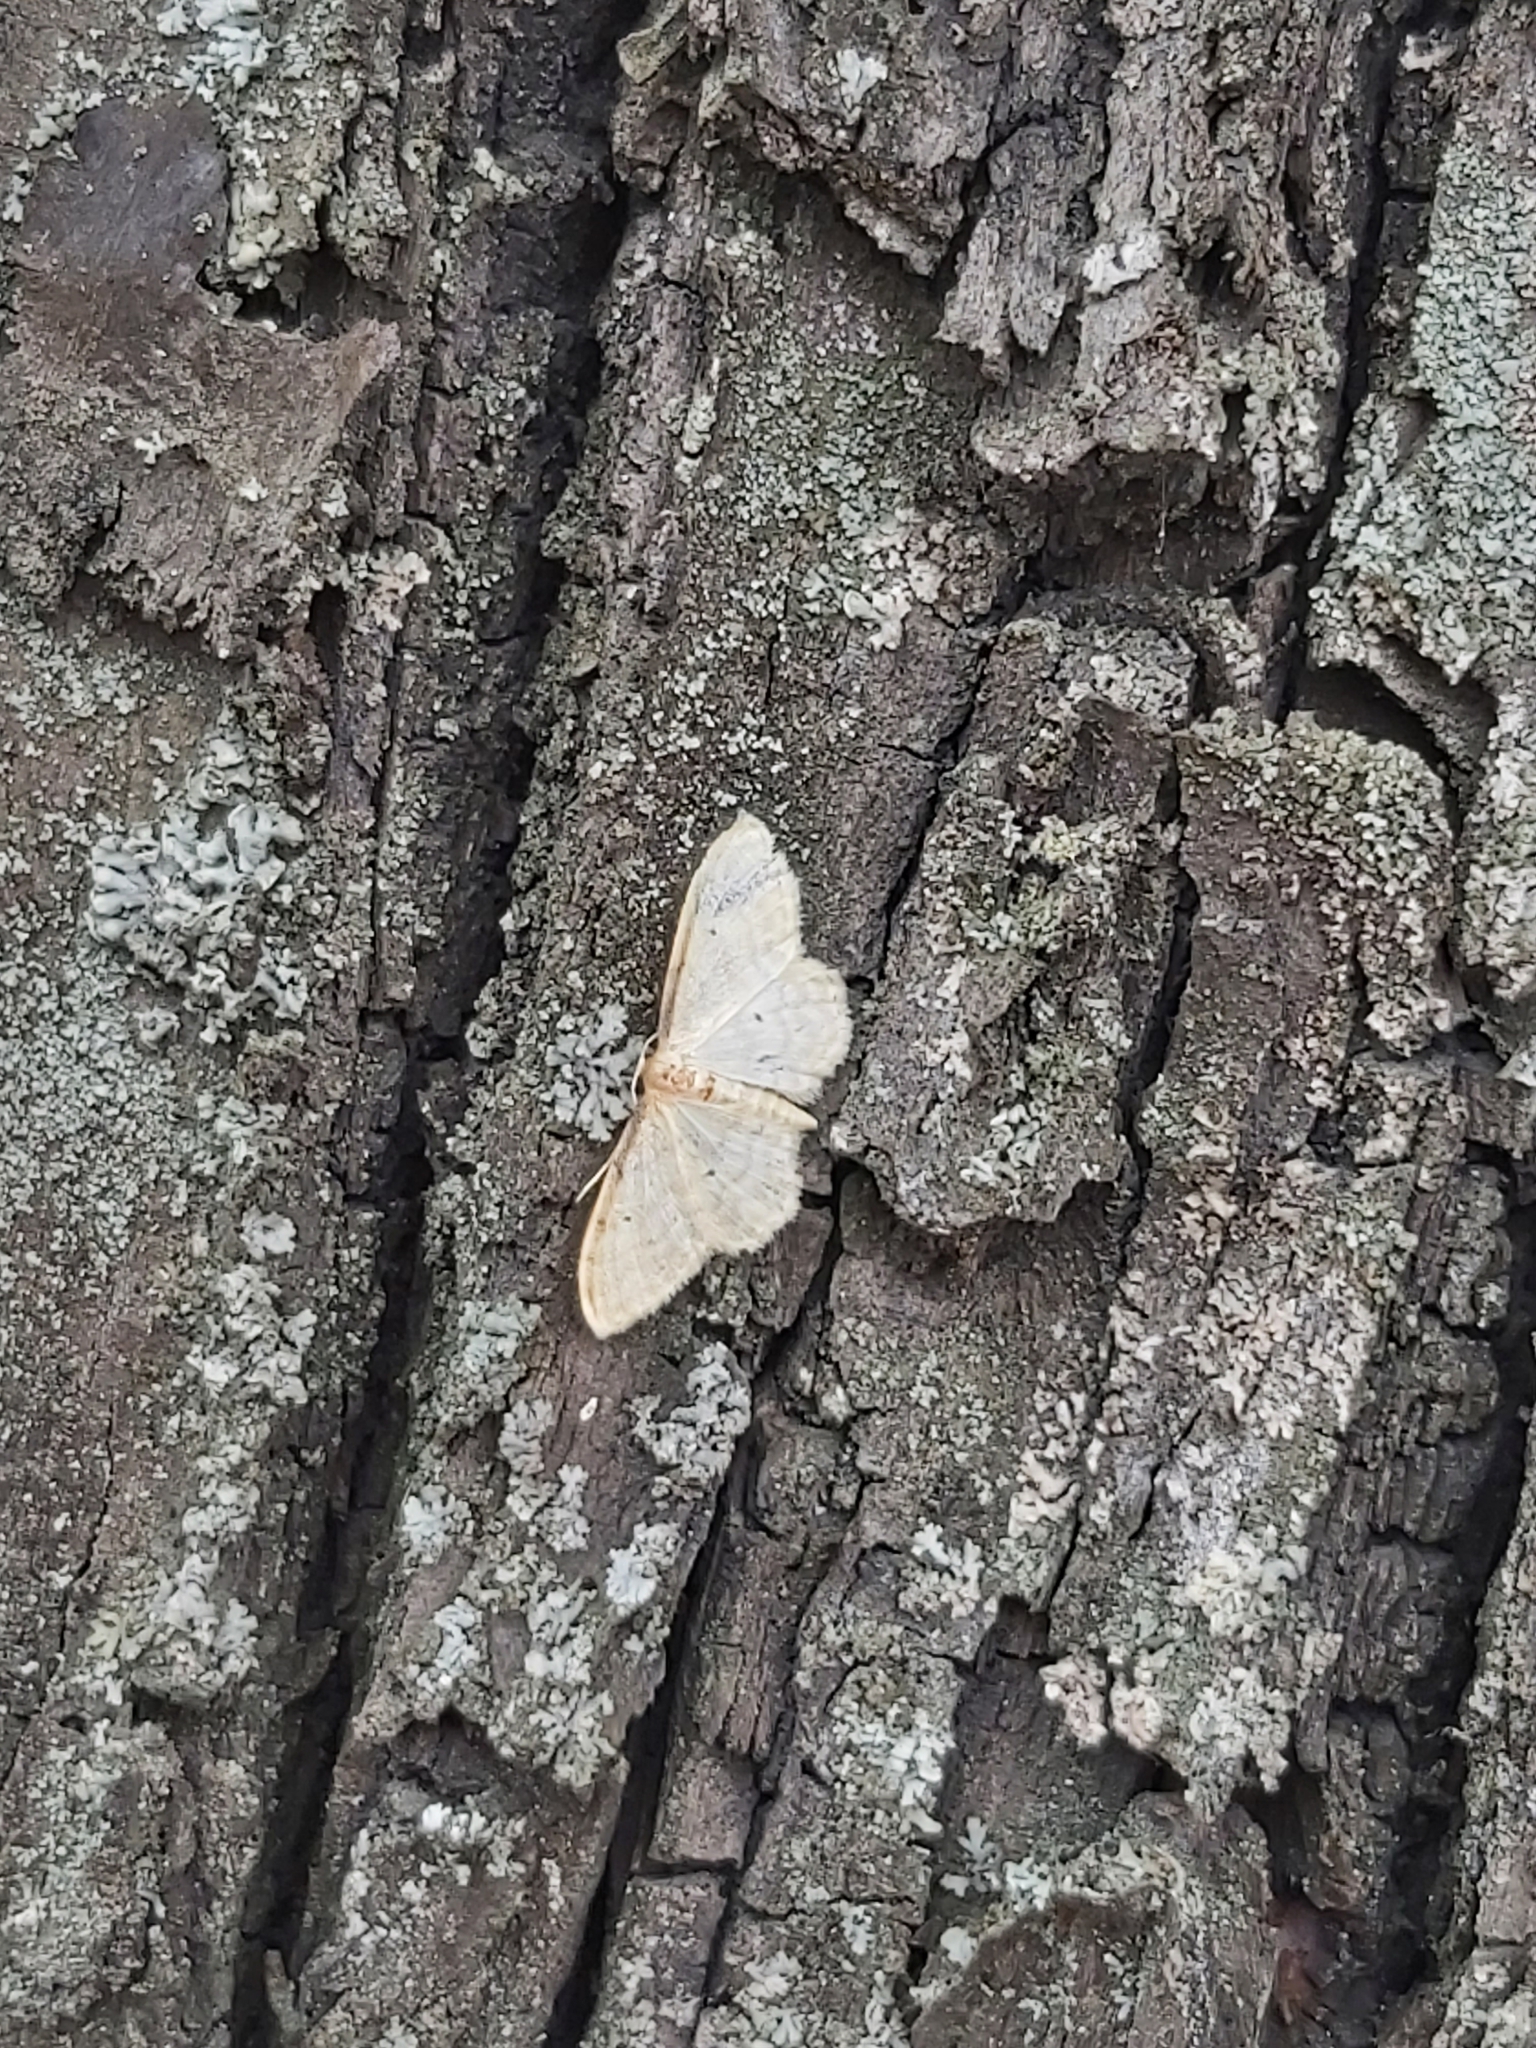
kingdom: Animalia
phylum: Arthropoda
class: Insecta
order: Lepidoptera
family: Geometridae
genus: Idaea
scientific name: Idaea fuscovenosa
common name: Dwarf cream wave
